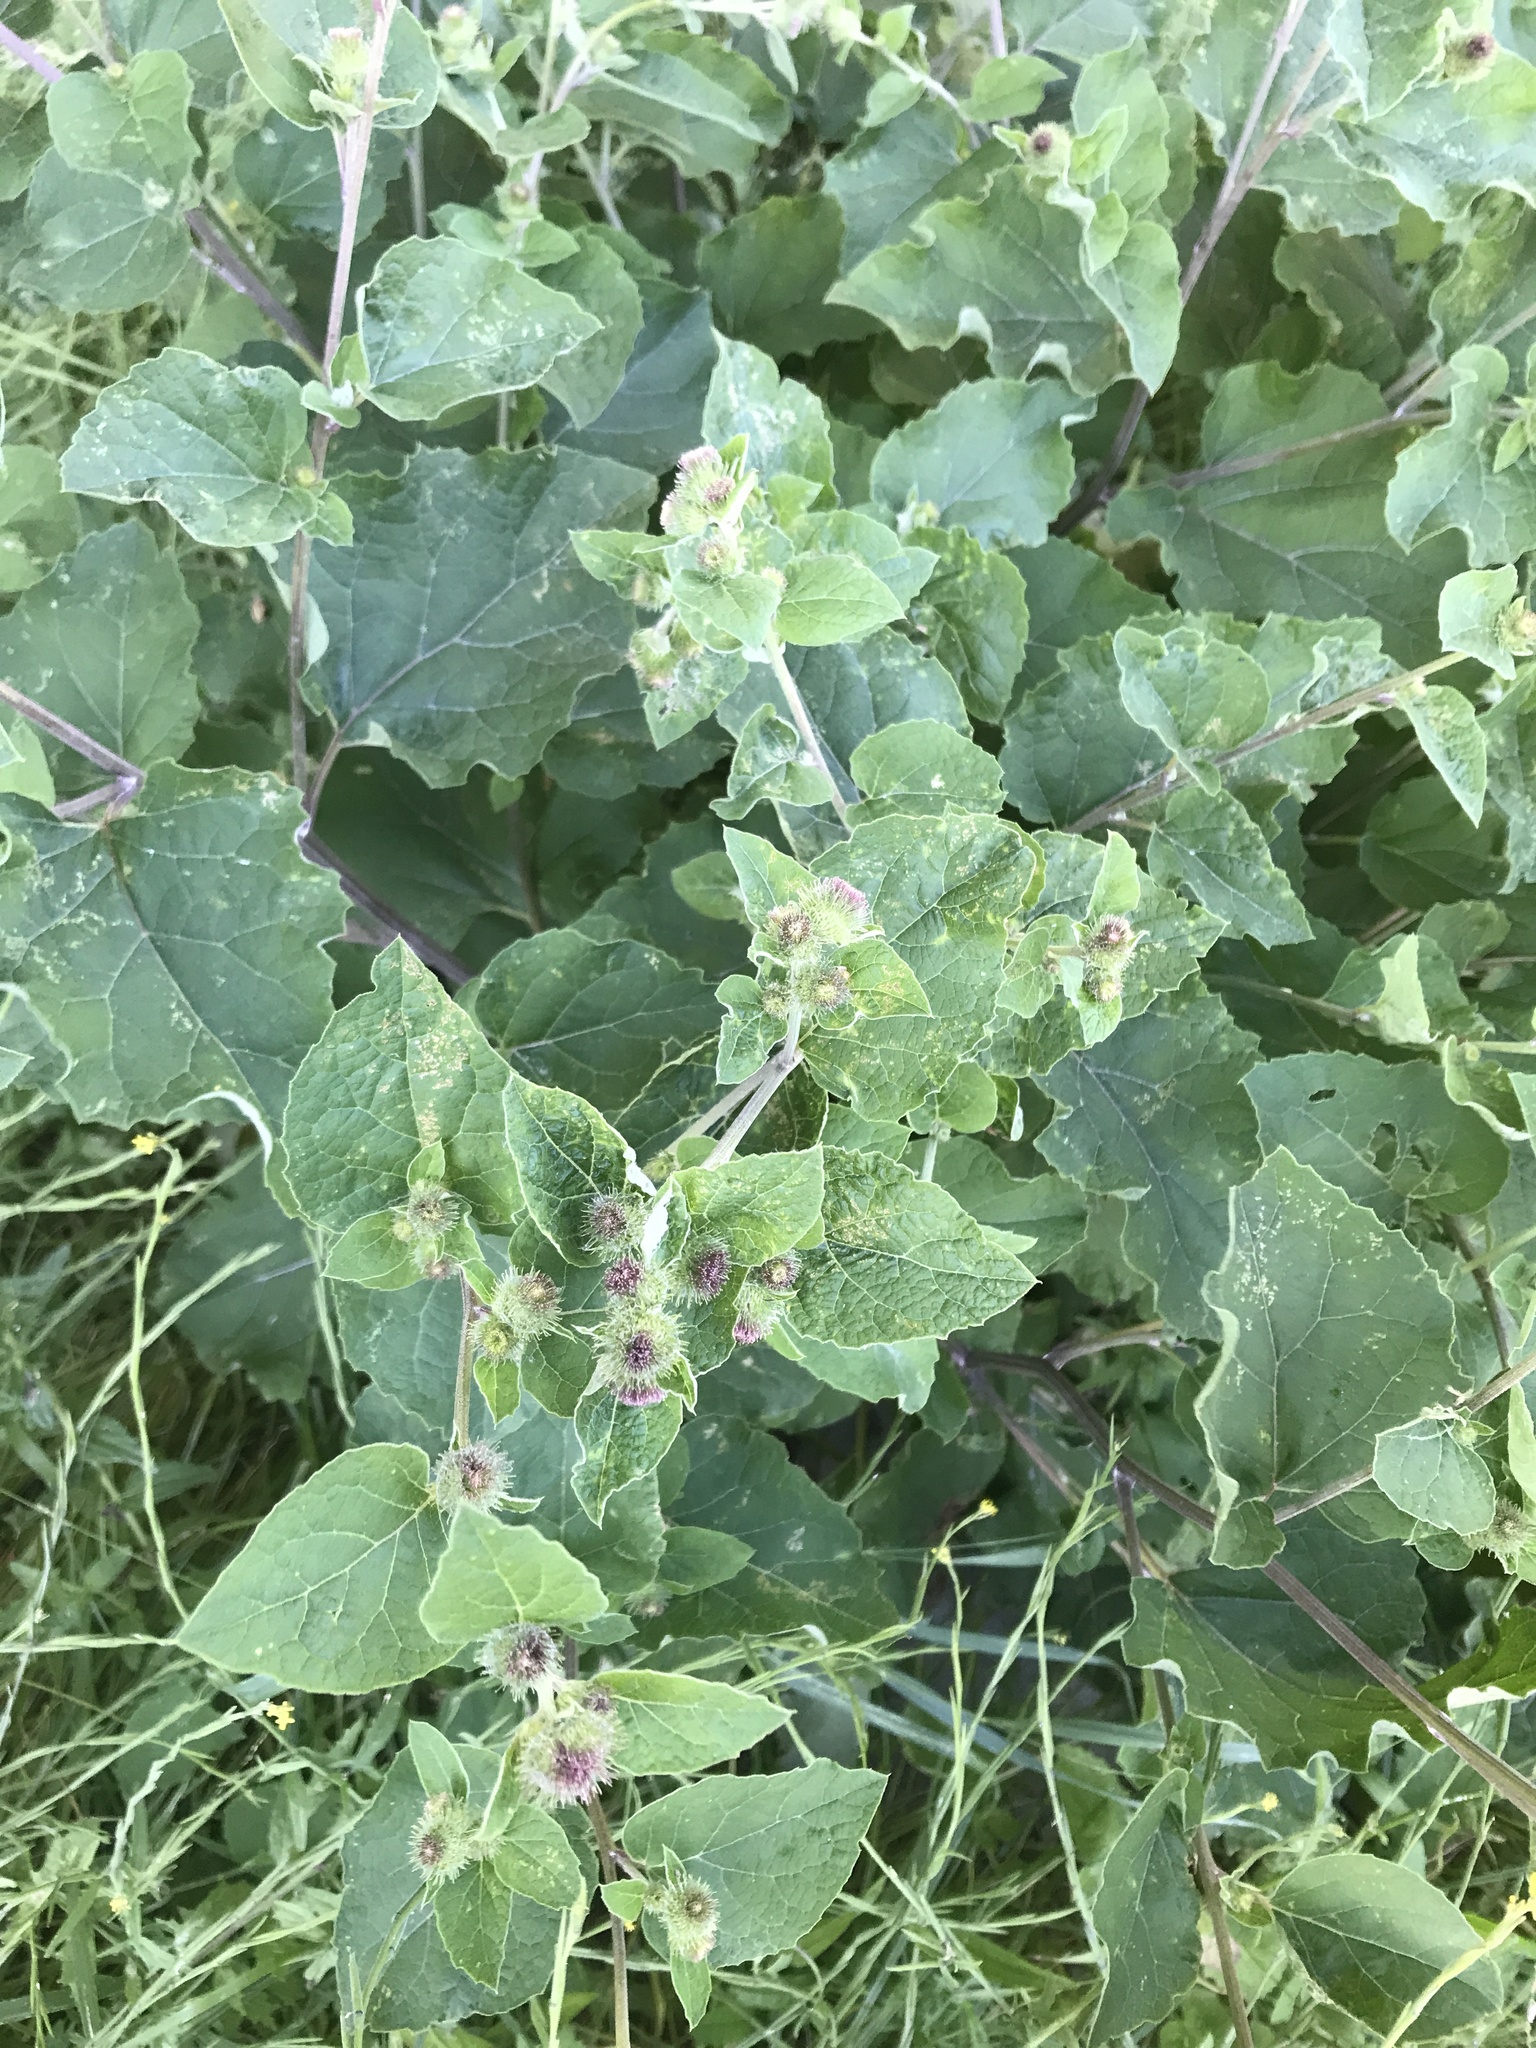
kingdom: Plantae
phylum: Tracheophyta
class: Magnoliopsida
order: Asterales
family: Asteraceae
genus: Arctium
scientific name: Arctium minus
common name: Lesser burdock
